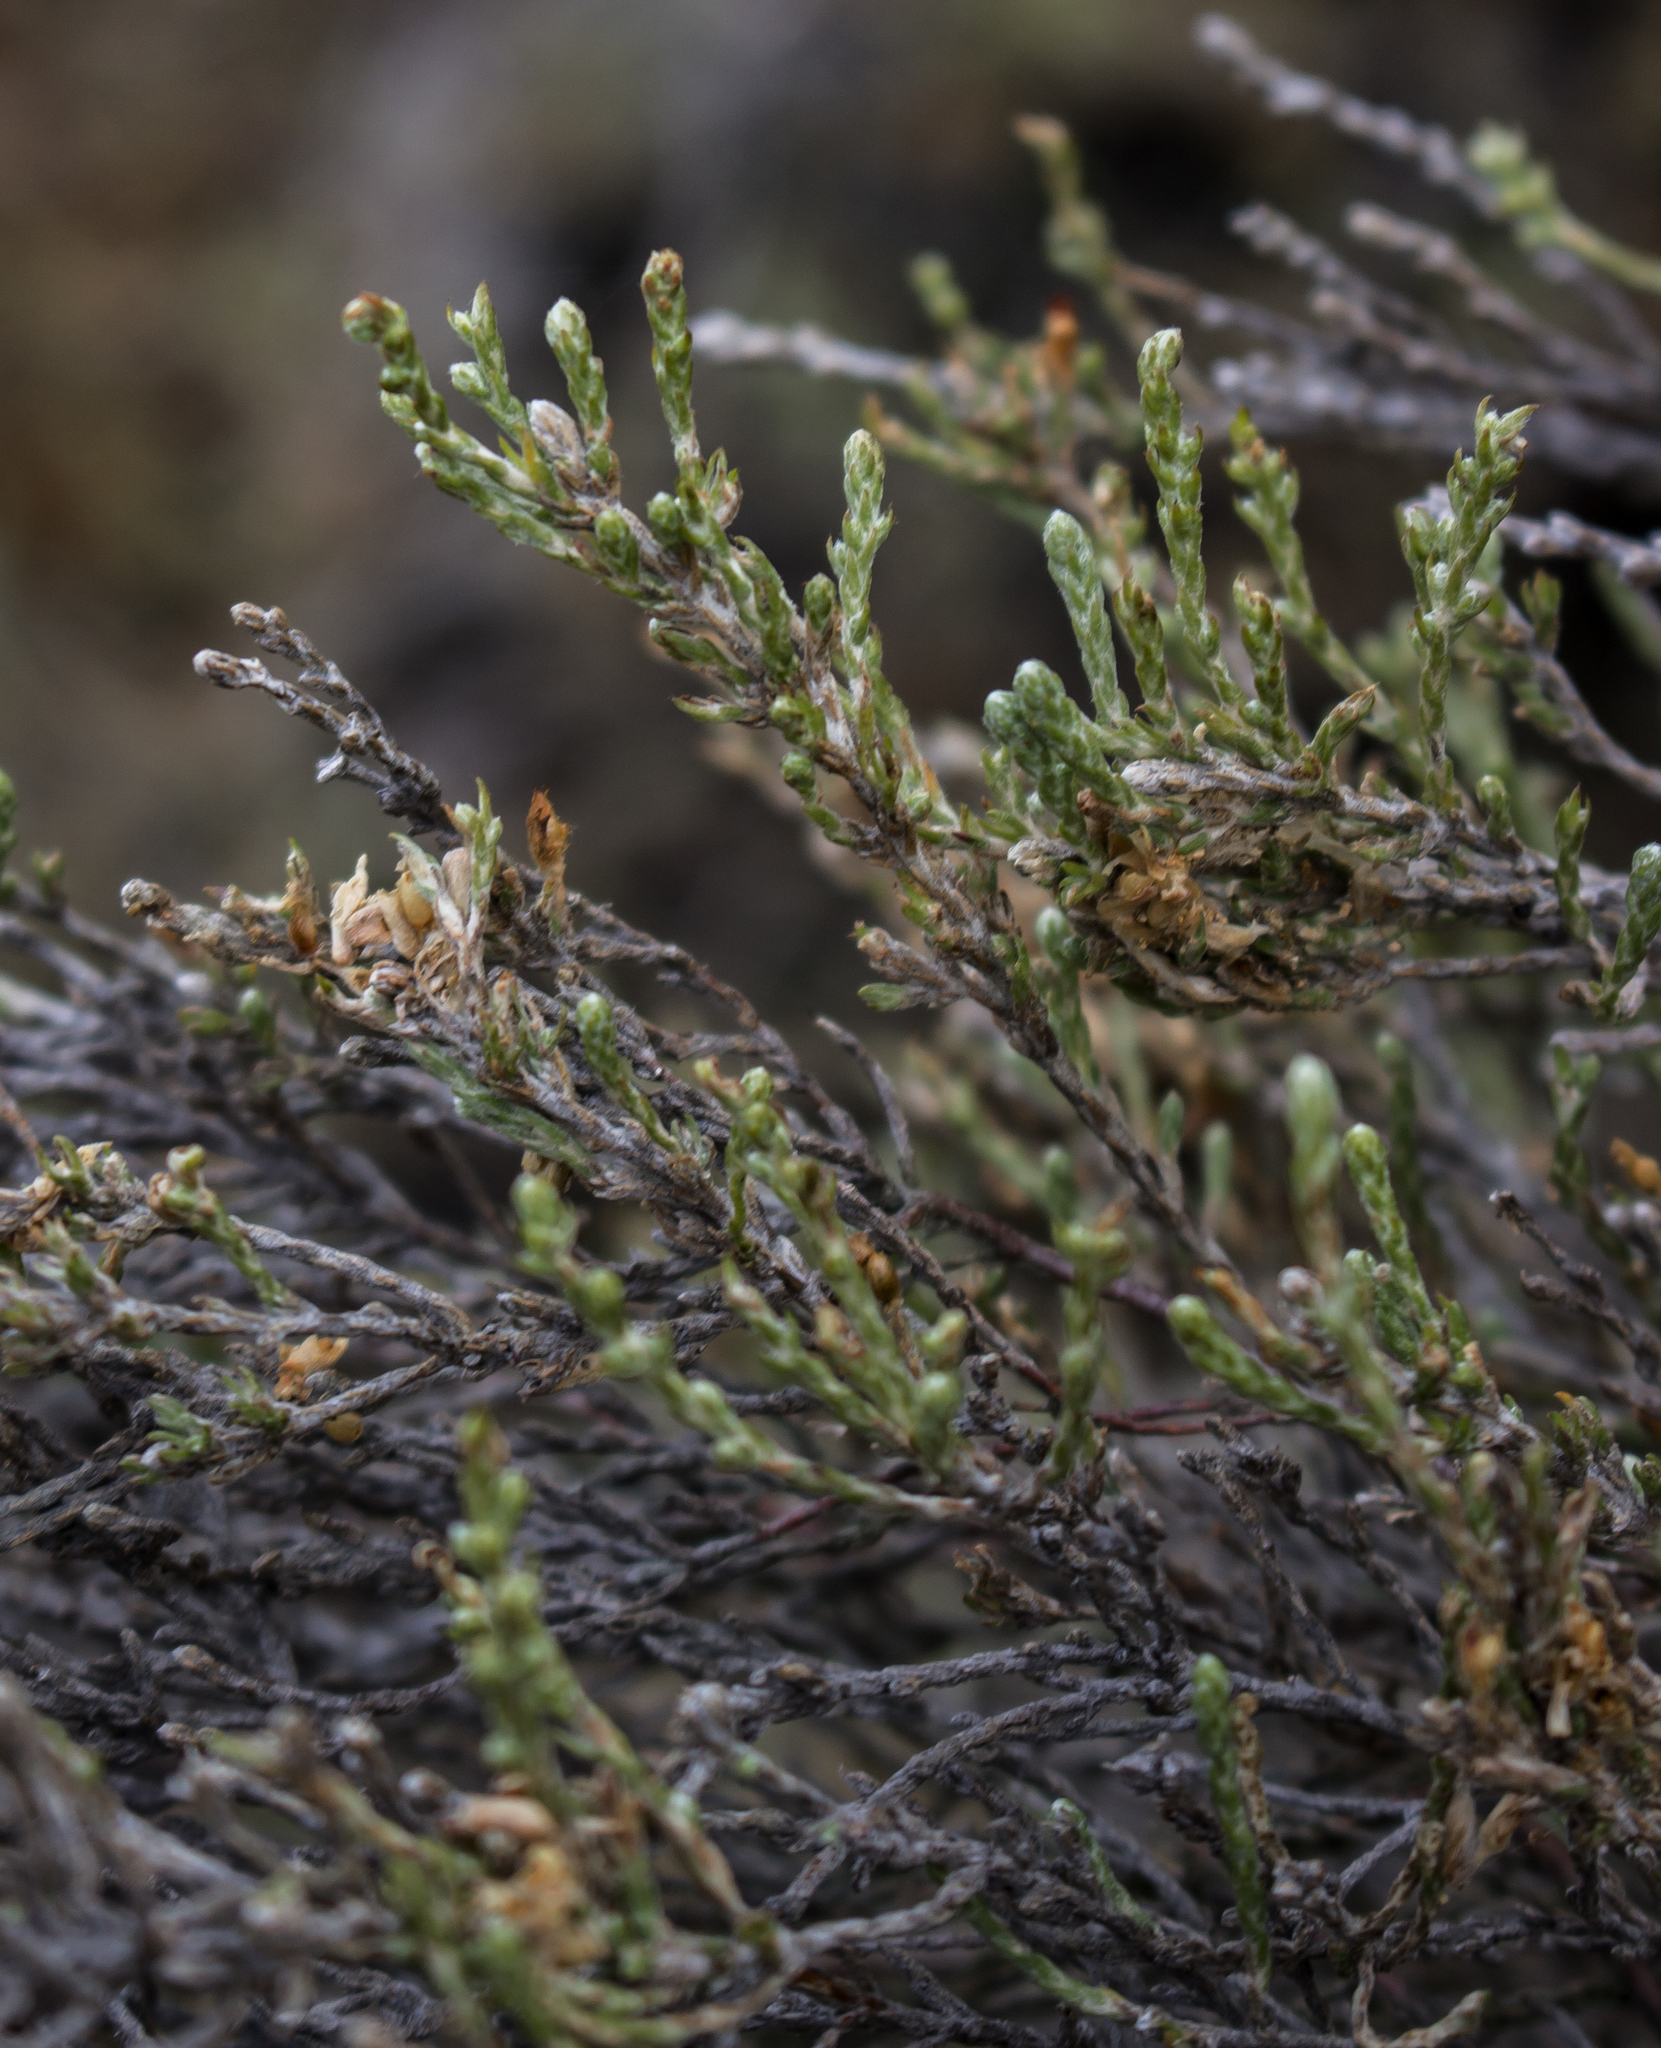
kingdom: Plantae
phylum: Tracheophyta
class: Magnoliopsida
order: Malvales
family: Cistaceae
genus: Hudsonia
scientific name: Hudsonia tomentosa
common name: Beach-heath
